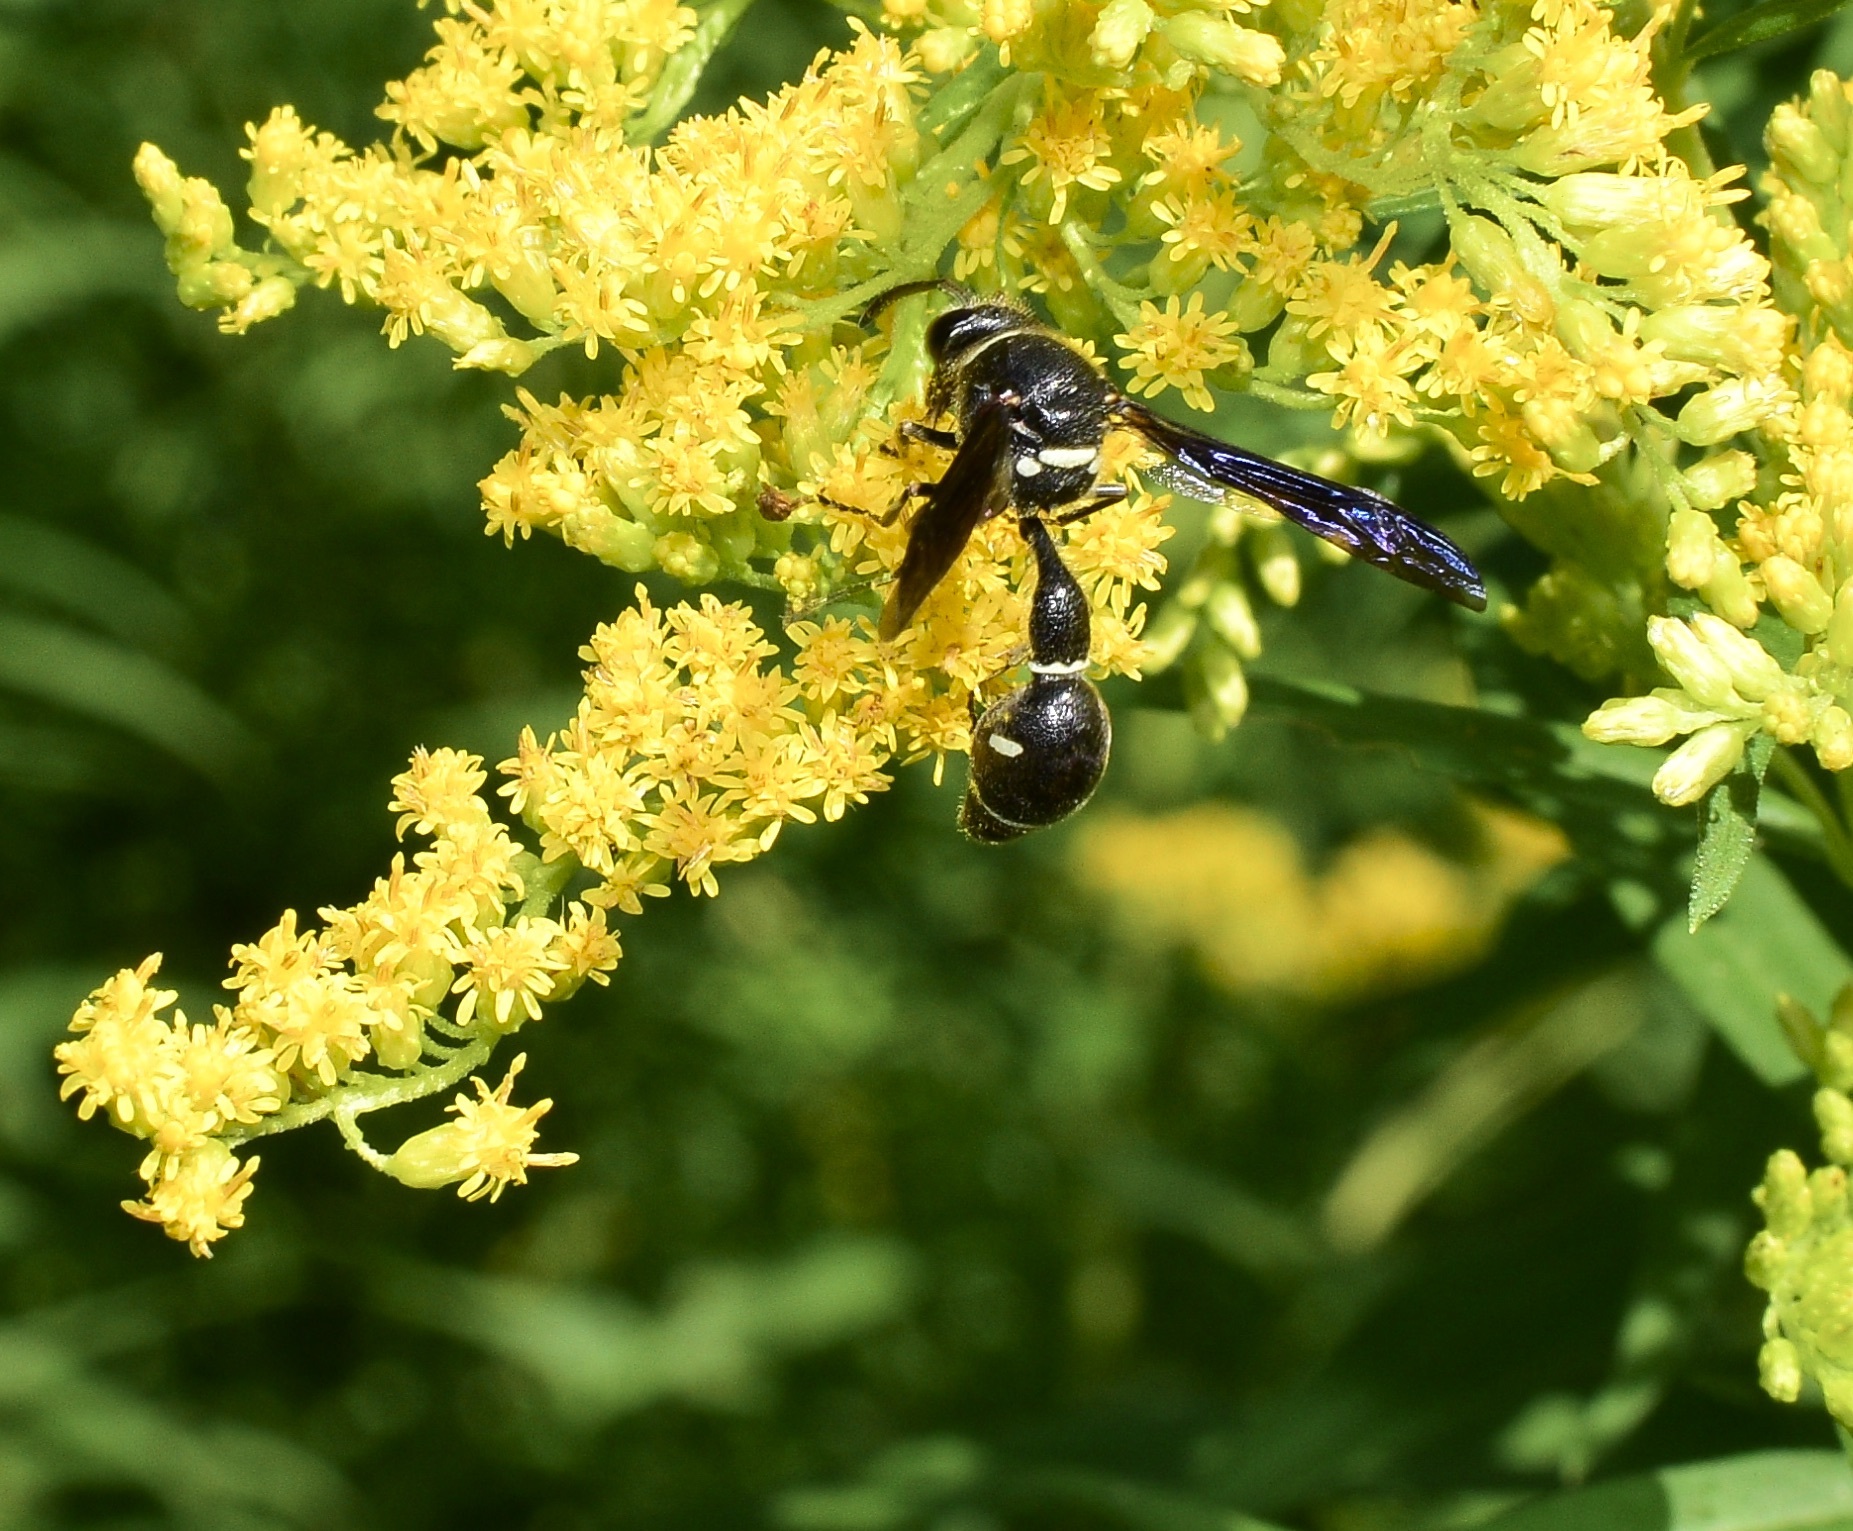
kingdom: Animalia
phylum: Arthropoda
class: Insecta
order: Hymenoptera
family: Vespidae
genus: Eumenes
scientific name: Eumenes fraternus
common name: Fraternal potter wasp
